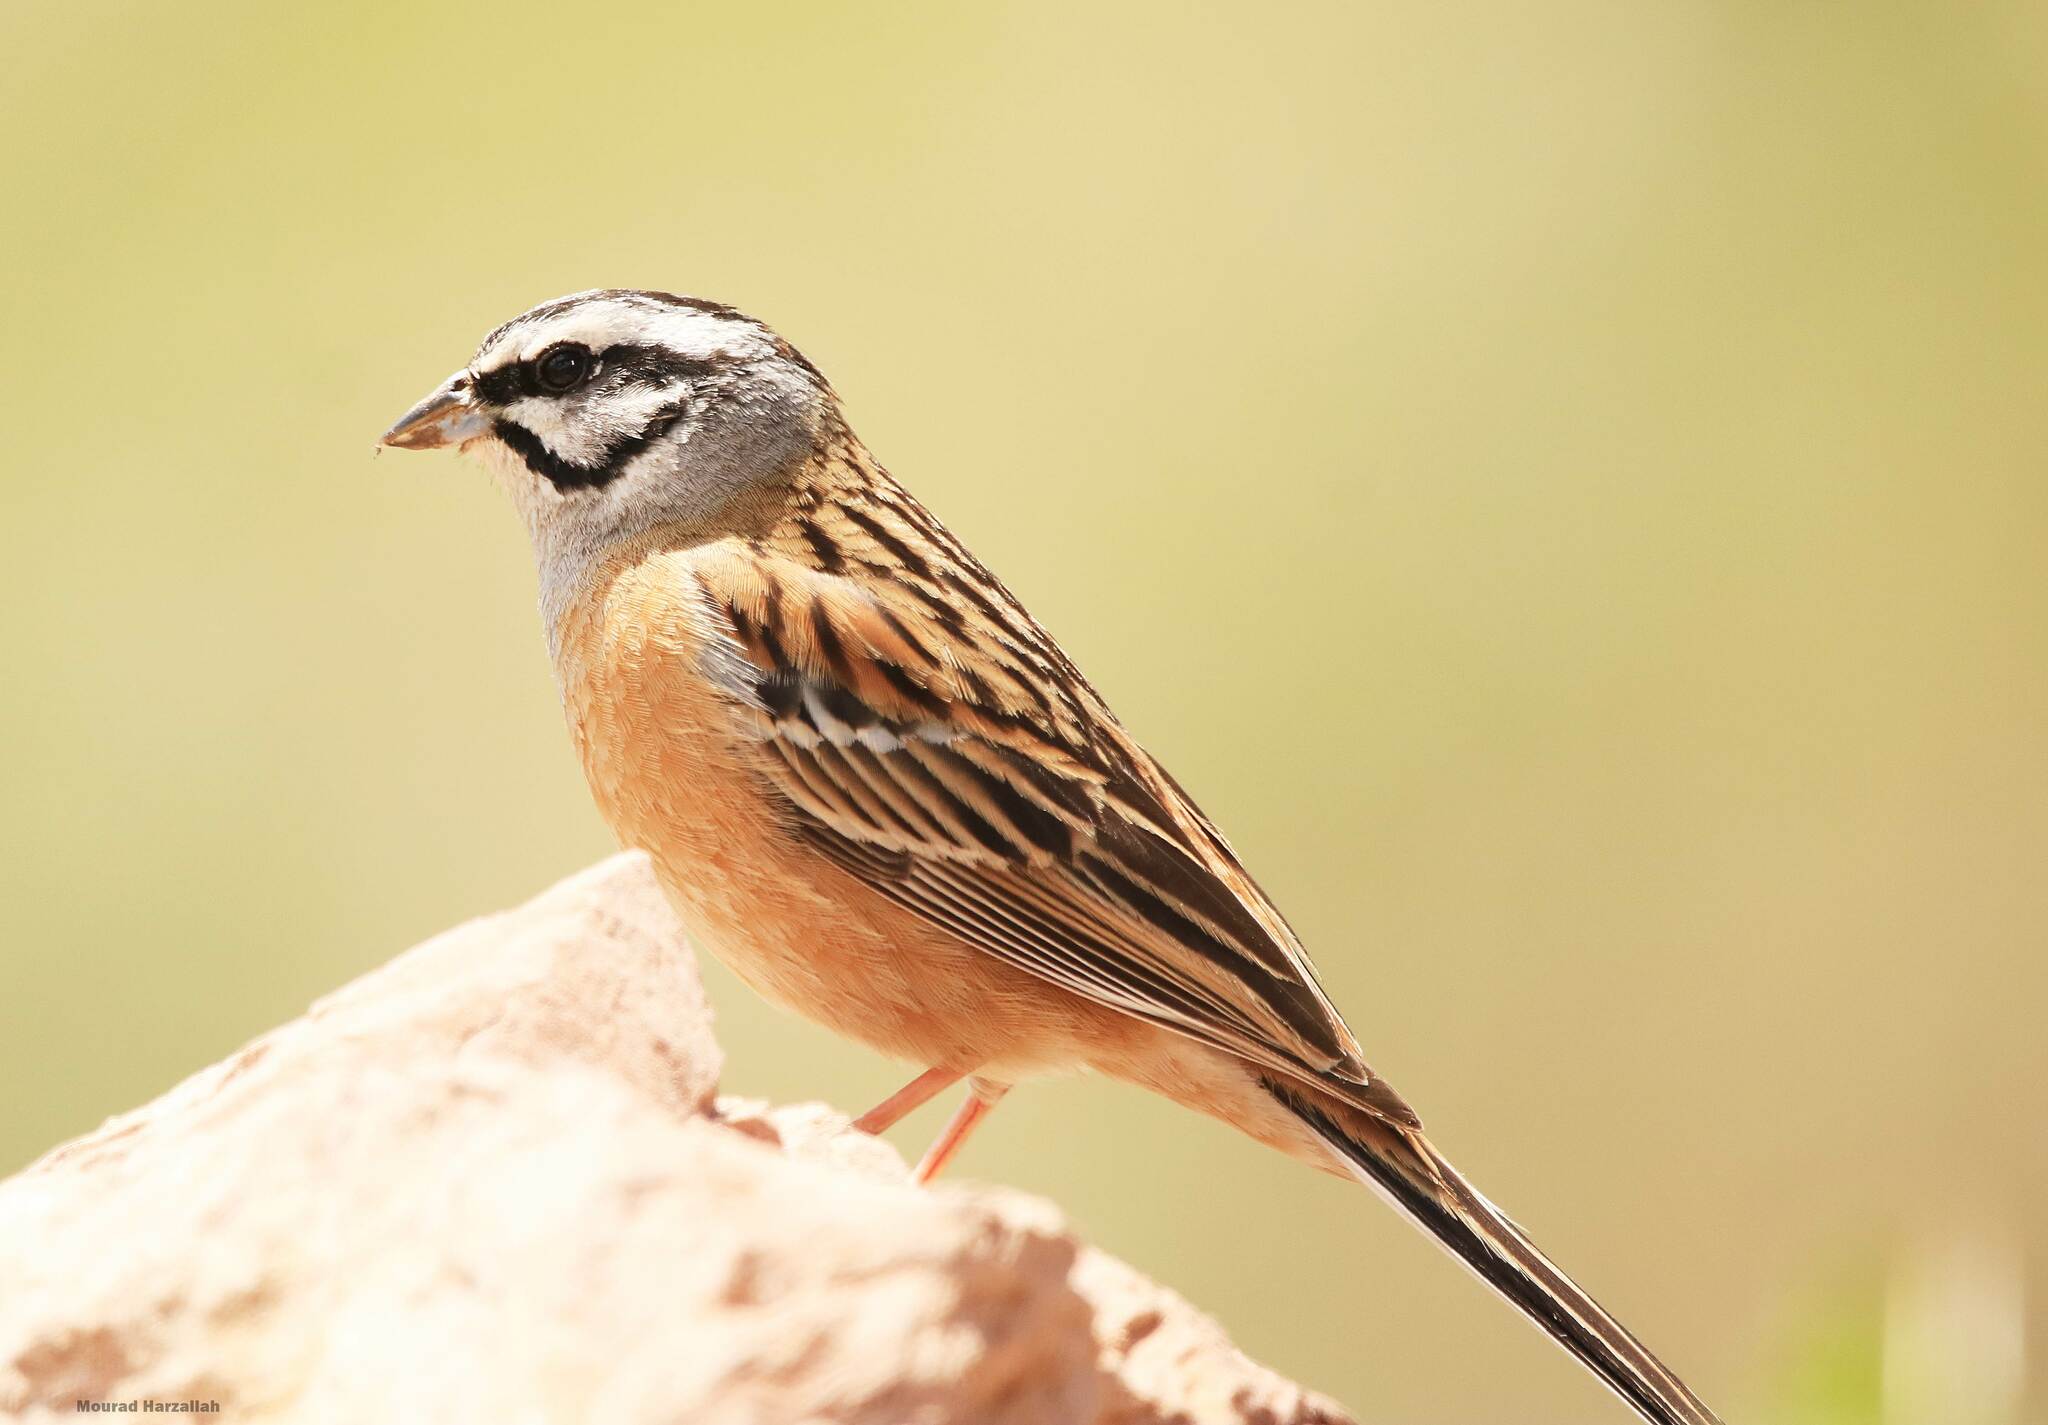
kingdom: Animalia
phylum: Chordata
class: Aves
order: Passeriformes
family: Emberizidae
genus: Emberiza
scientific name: Emberiza cia
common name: Rock bunting
